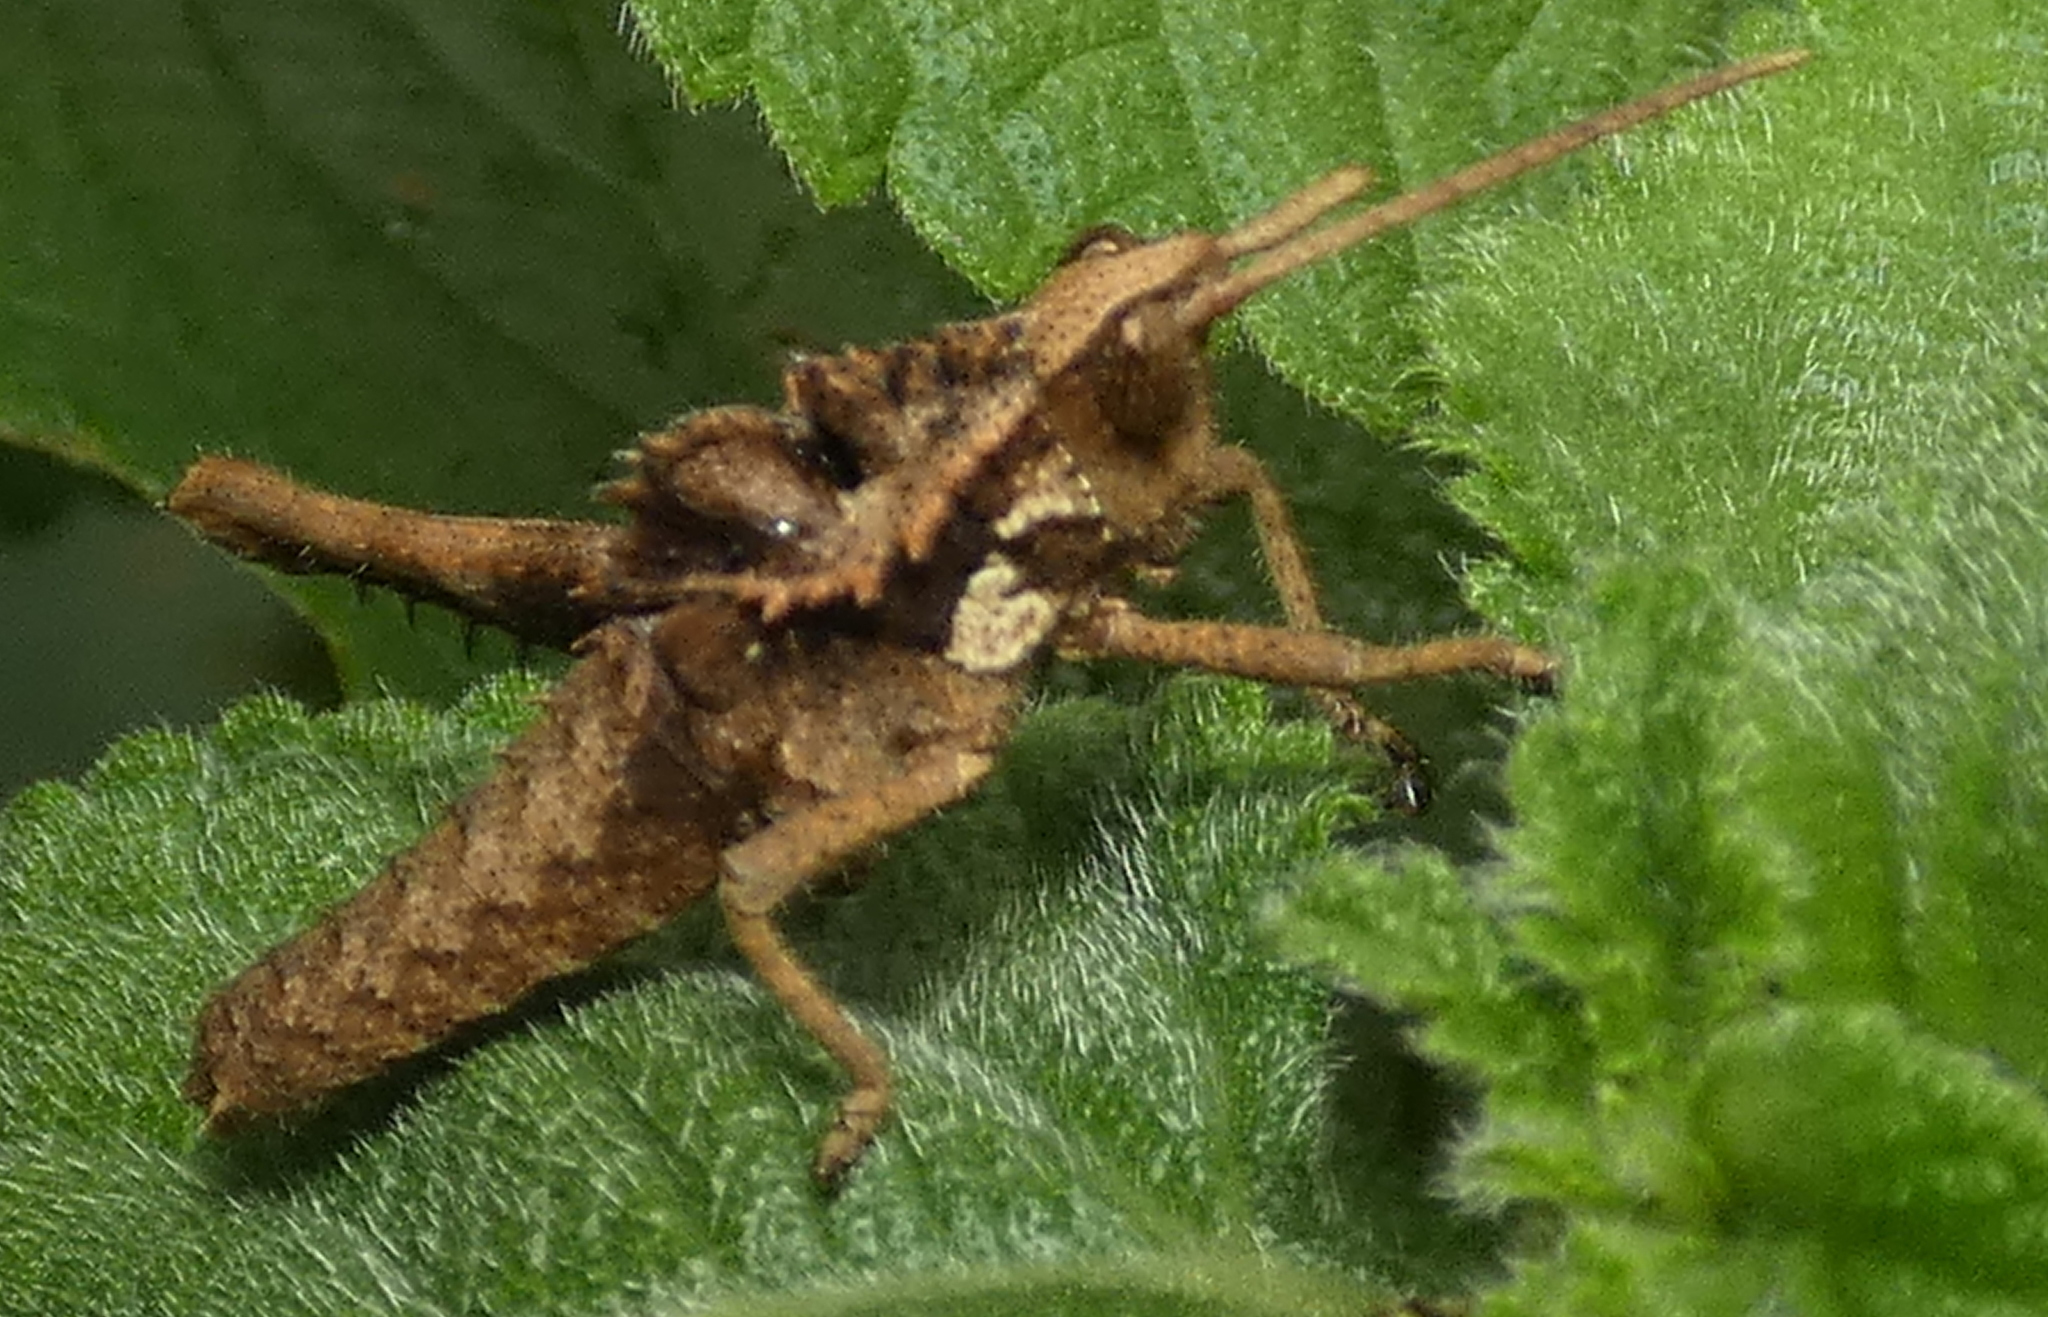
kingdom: Animalia
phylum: Arthropoda
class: Insecta
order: Orthoptera
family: Romaleidae
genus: Helionotus
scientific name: Helionotus mirabilis
